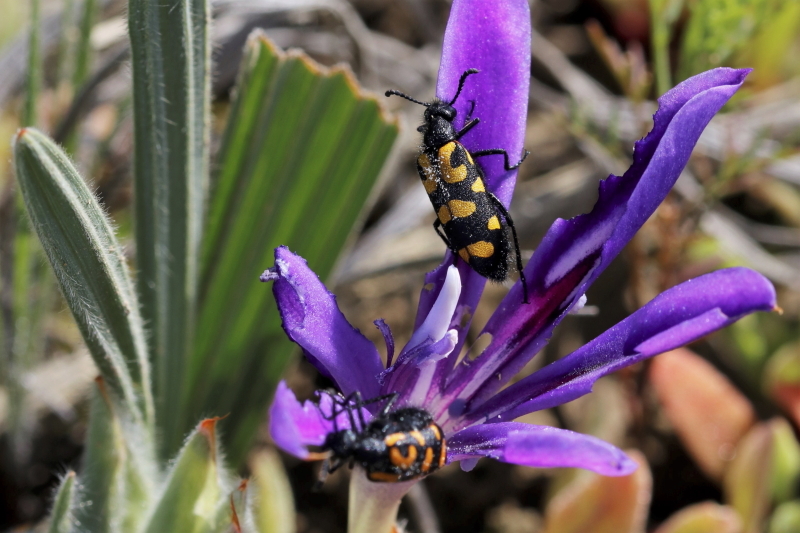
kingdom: Animalia
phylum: Arthropoda
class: Insecta
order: Coleoptera
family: Meloidae
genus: Ceroctis
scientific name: Ceroctis capensis
